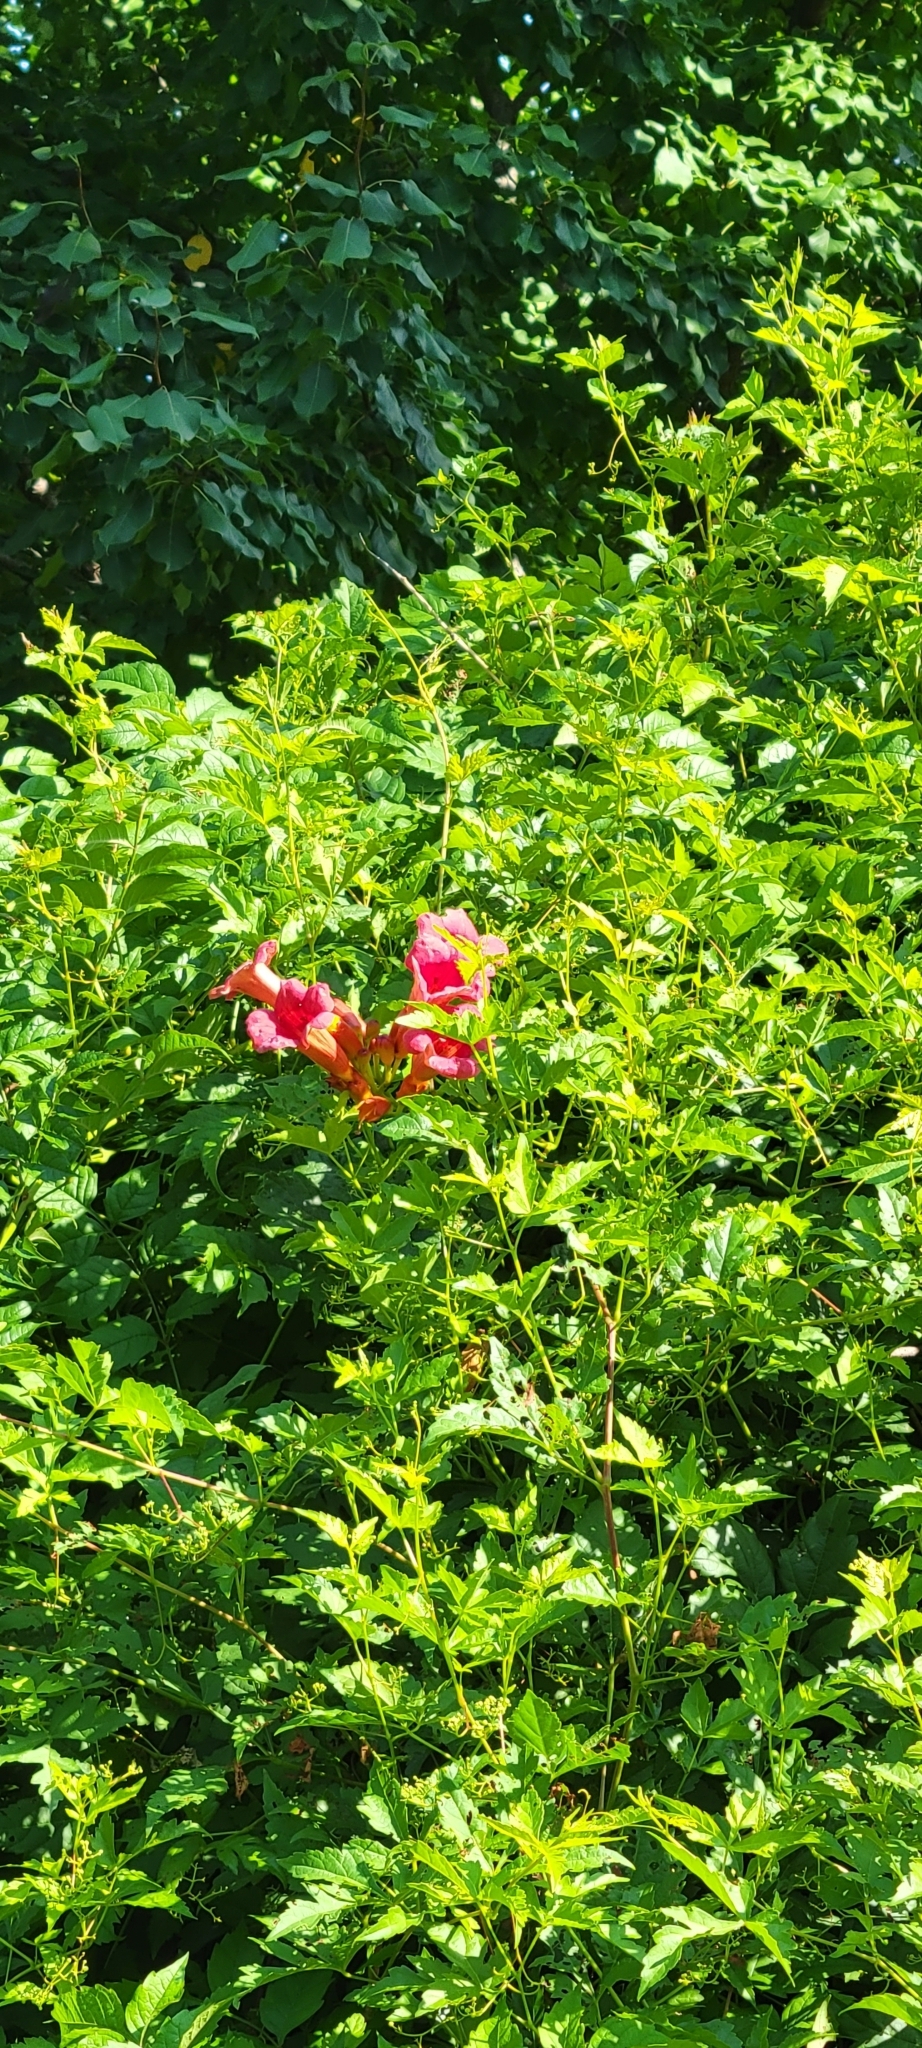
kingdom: Plantae
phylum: Tracheophyta
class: Magnoliopsida
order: Lamiales
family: Bignoniaceae
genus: Campsis
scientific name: Campsis radicans
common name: Trumpet-creeper
